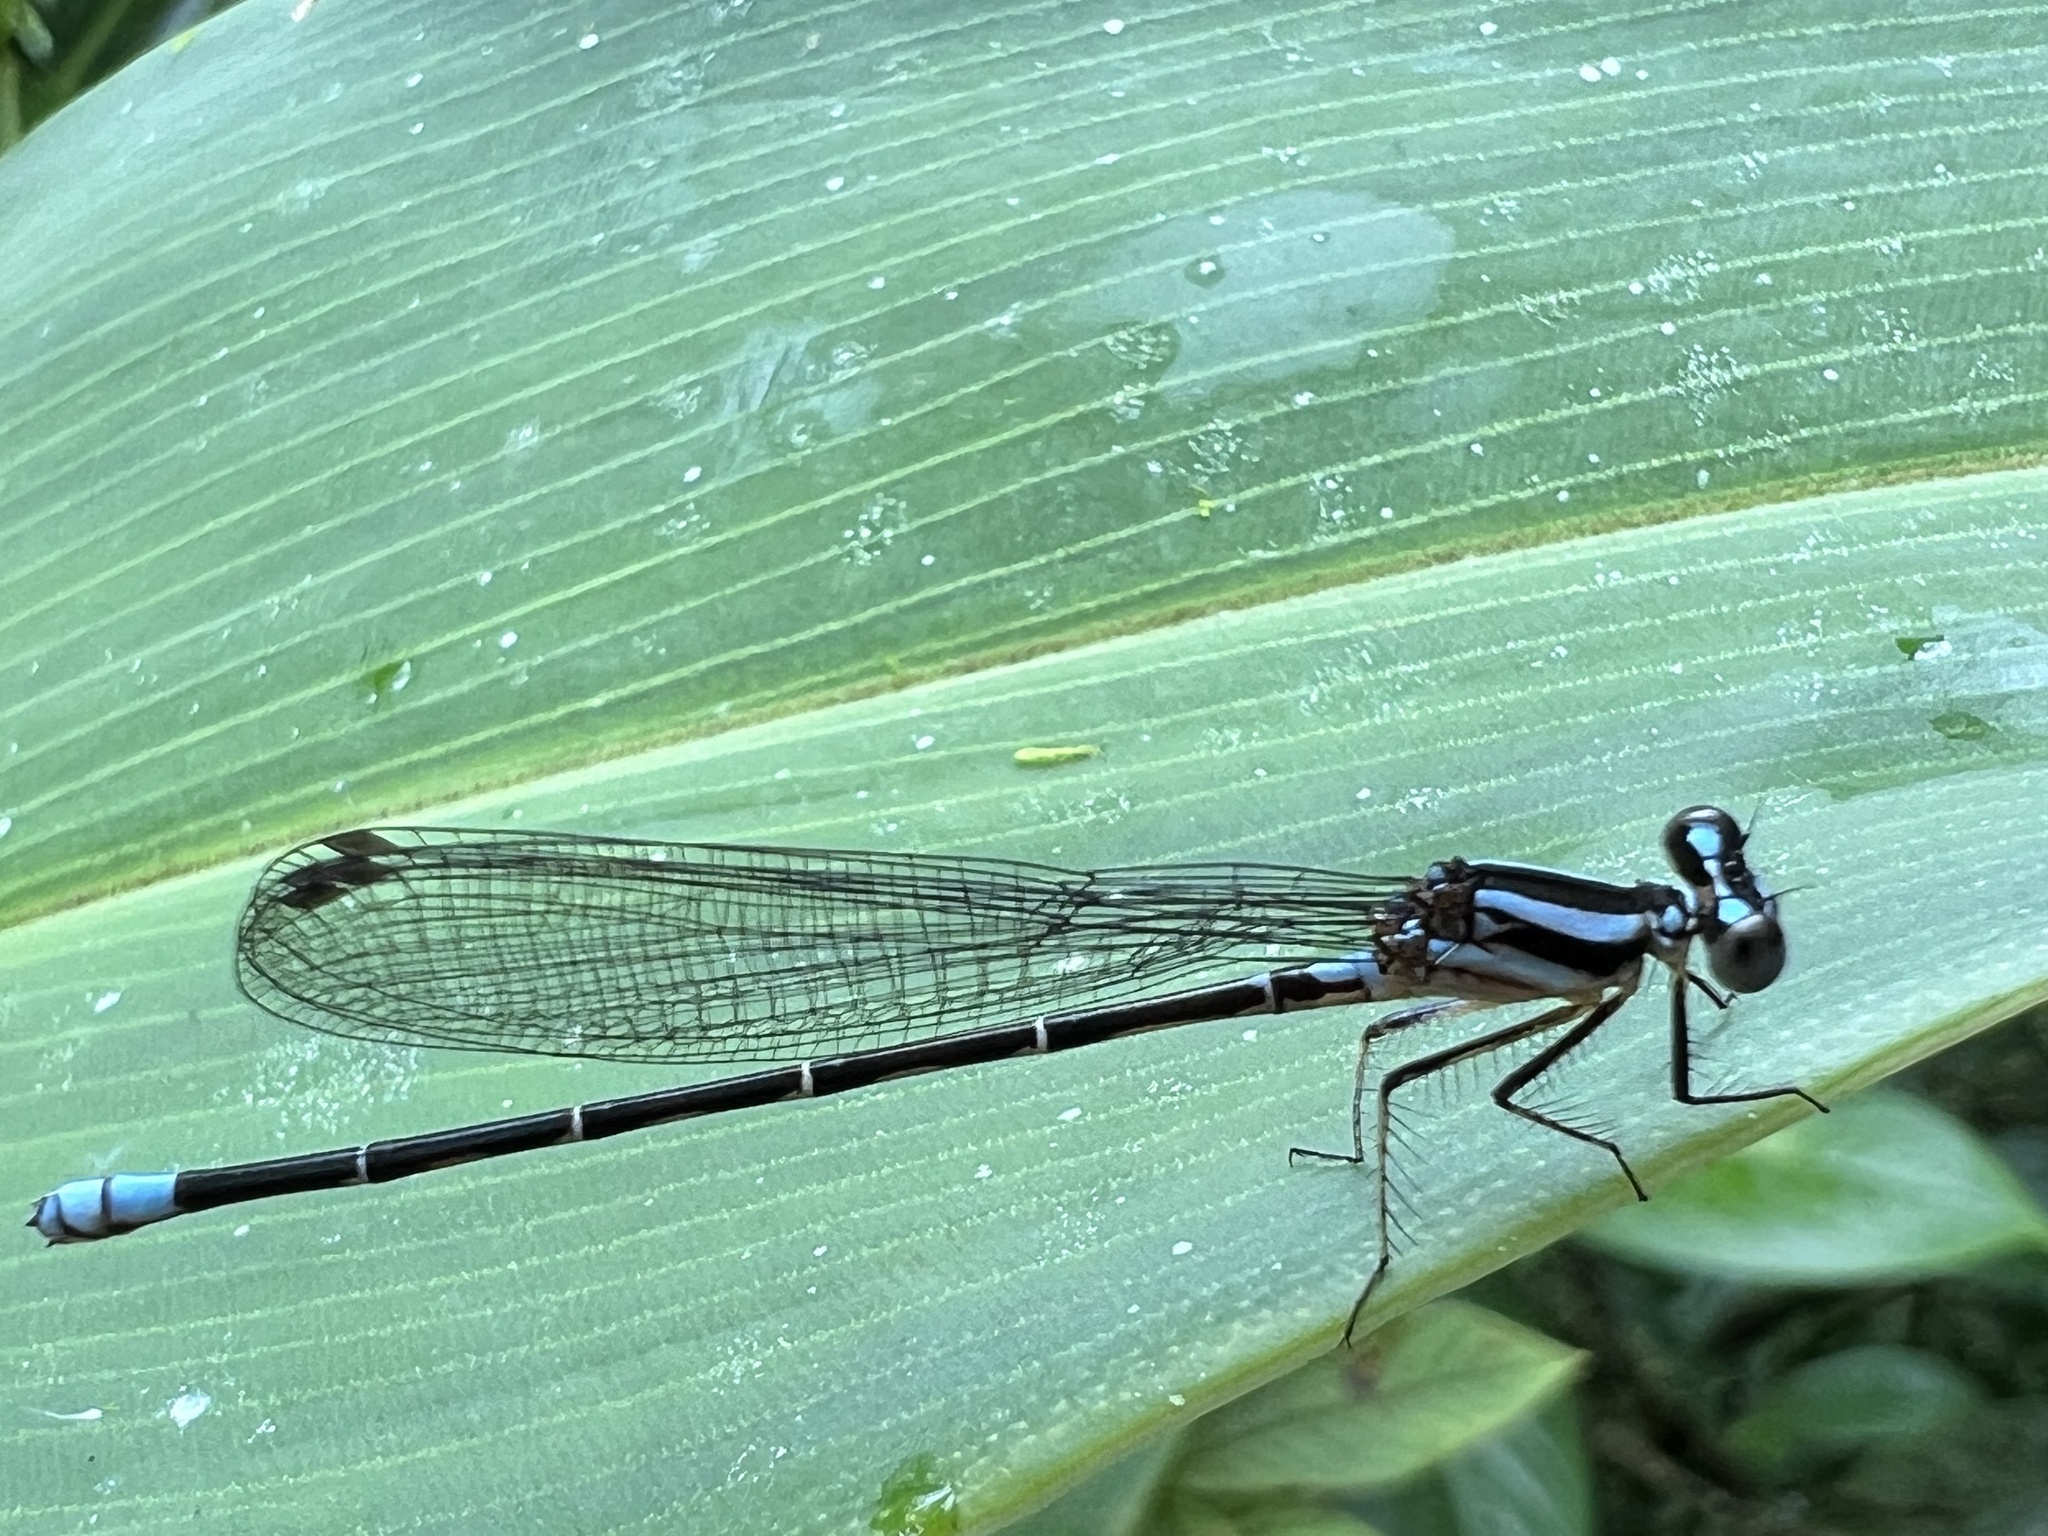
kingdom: Animalia
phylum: Arthropoda
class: Insecta
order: Odonata
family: Coenagrionidae
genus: Argia
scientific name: Argia johannella
